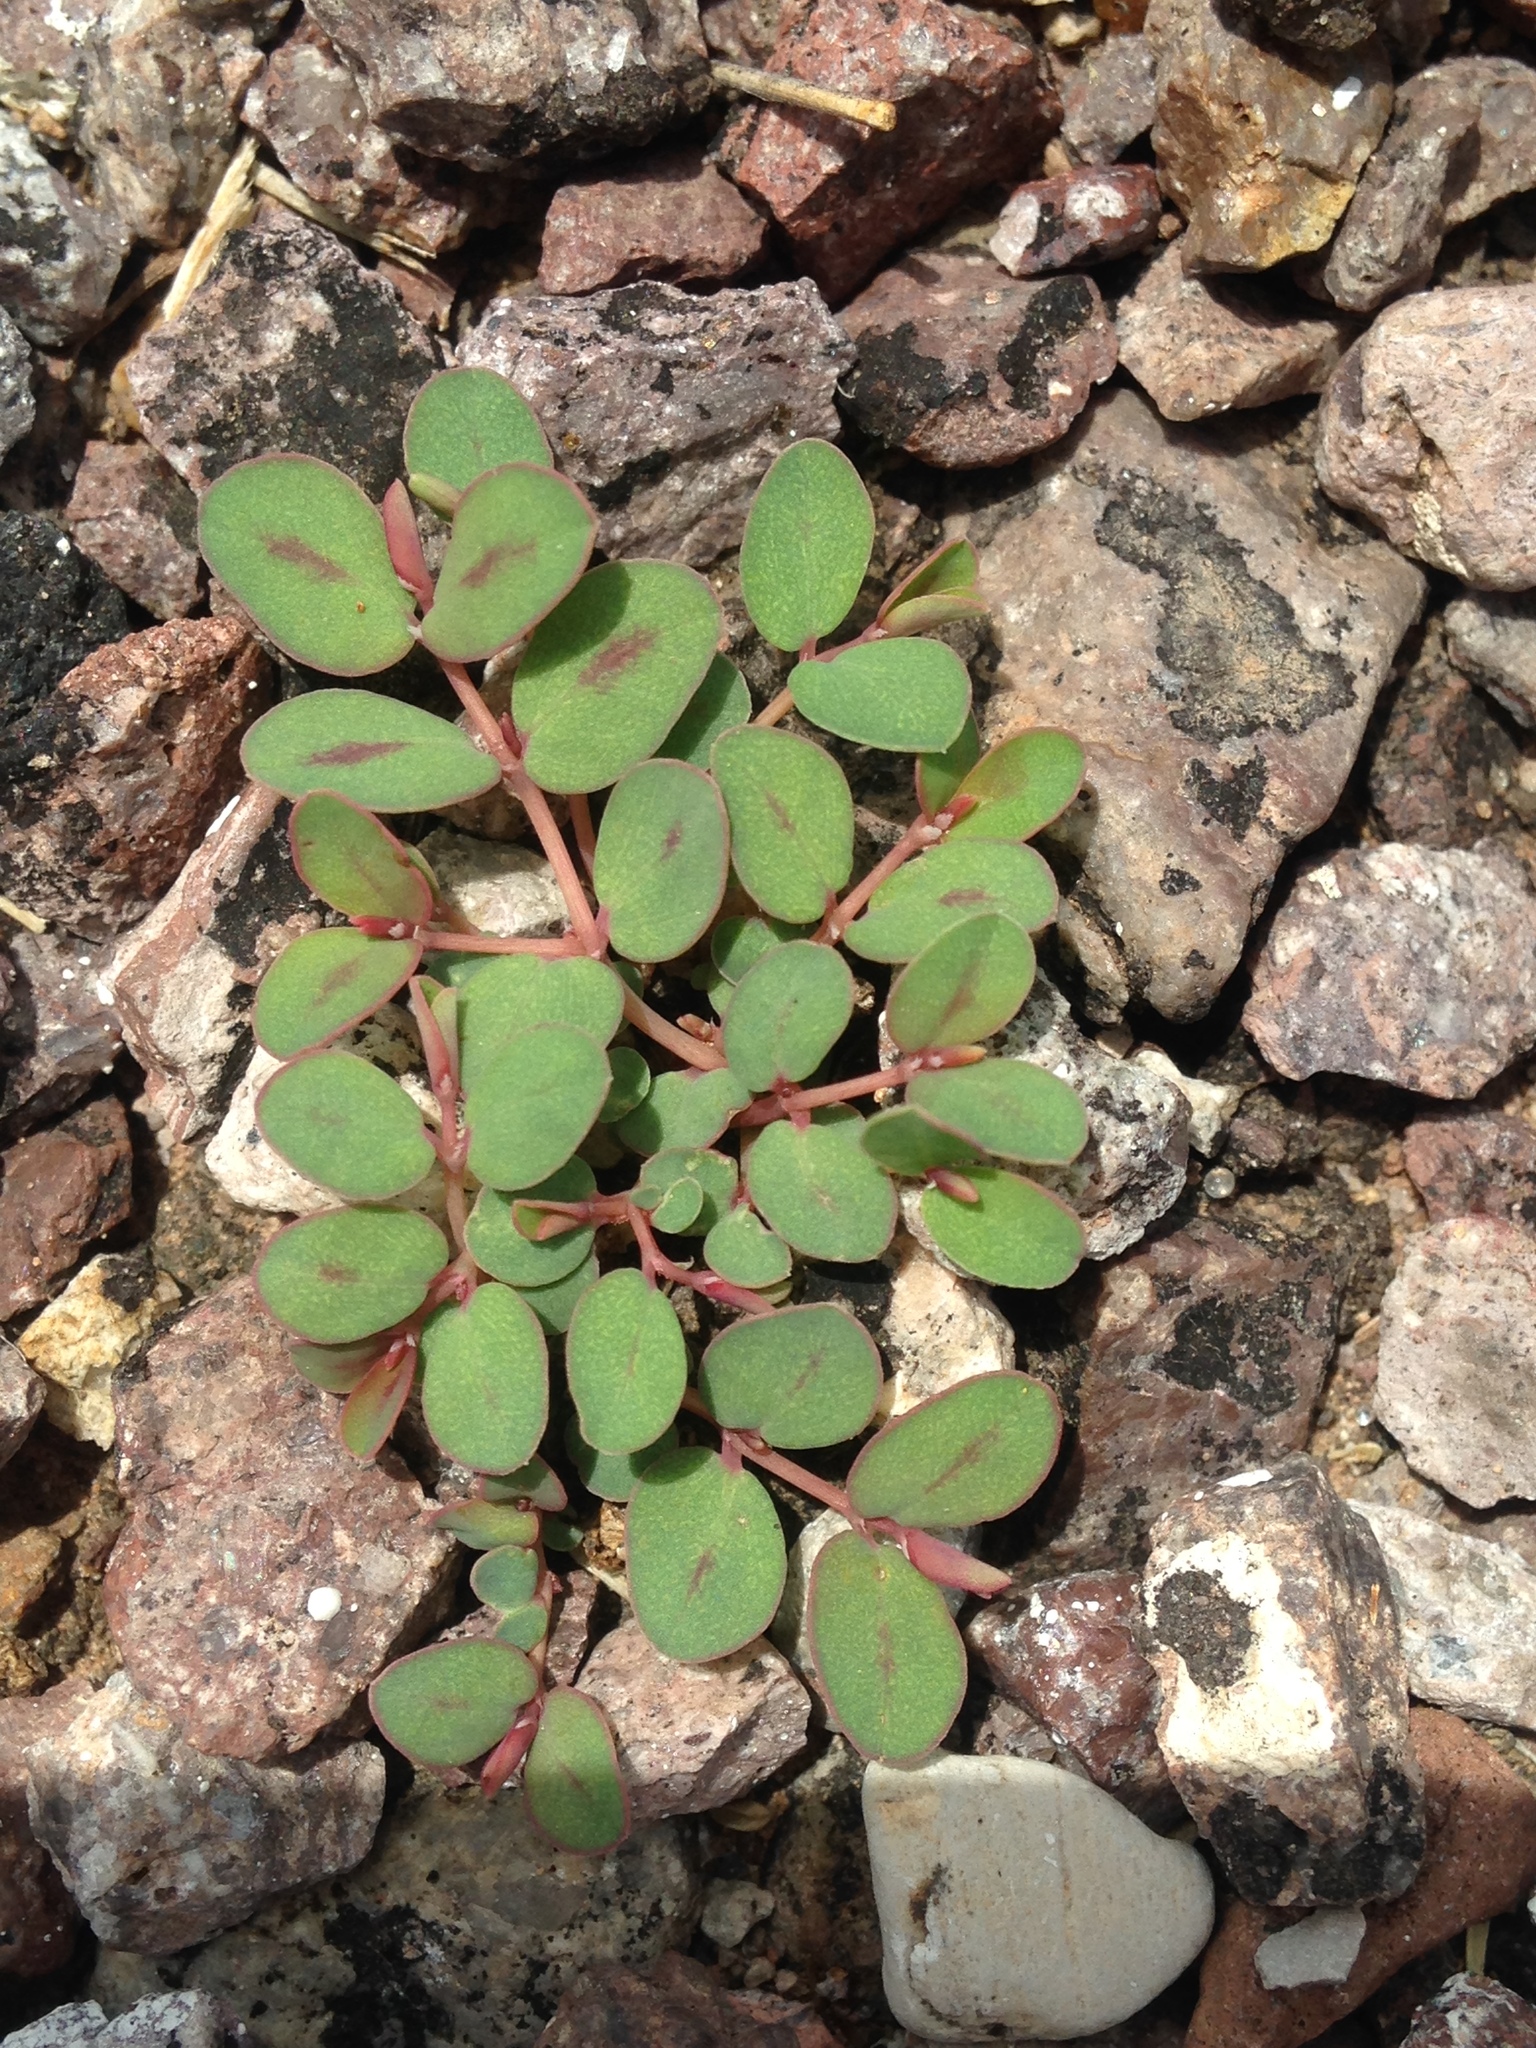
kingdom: Plantae
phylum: Tracheophyta
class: Magnoliopsida
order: Malpighiales
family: Euphorbiaceae
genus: Euphorbia
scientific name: Euphorbia albomarginata
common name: Whitemargin sandmat
